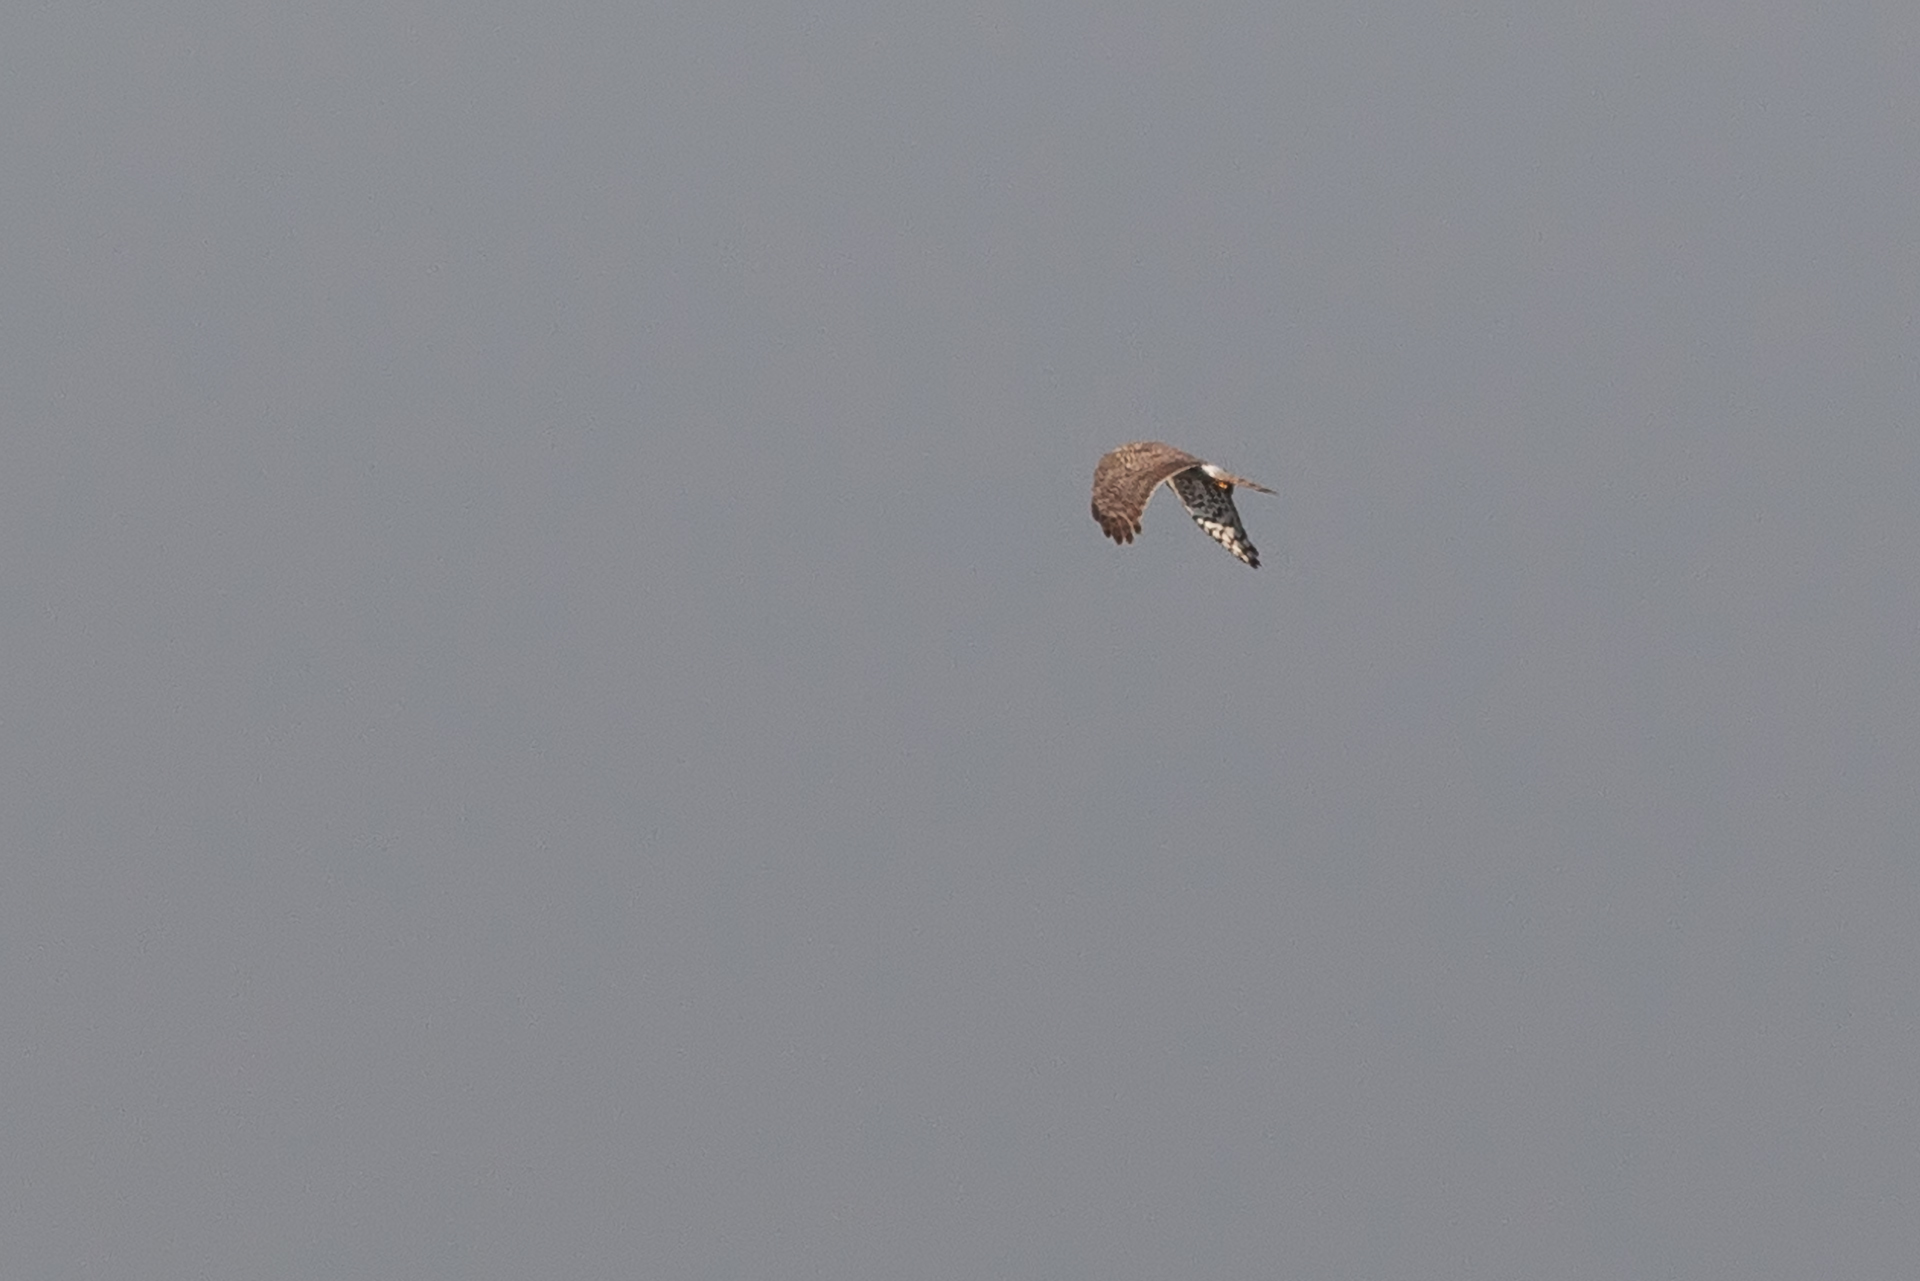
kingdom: Animalia
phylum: Chordata
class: Aves
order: Accipitriformes
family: Accipitridae
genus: Circus
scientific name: Circus cyaneus
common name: Hen harrier
